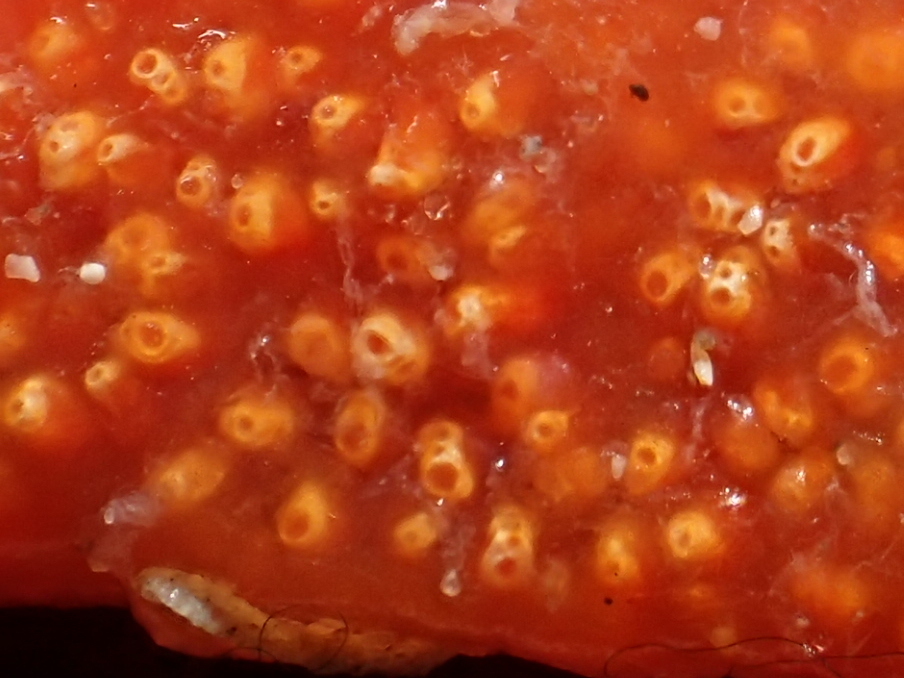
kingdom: Animalia
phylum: Chordata
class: Ascidiacea
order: Aplousobranchia
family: Polyclinidae
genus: Aplidium
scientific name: Aplidium benhami
